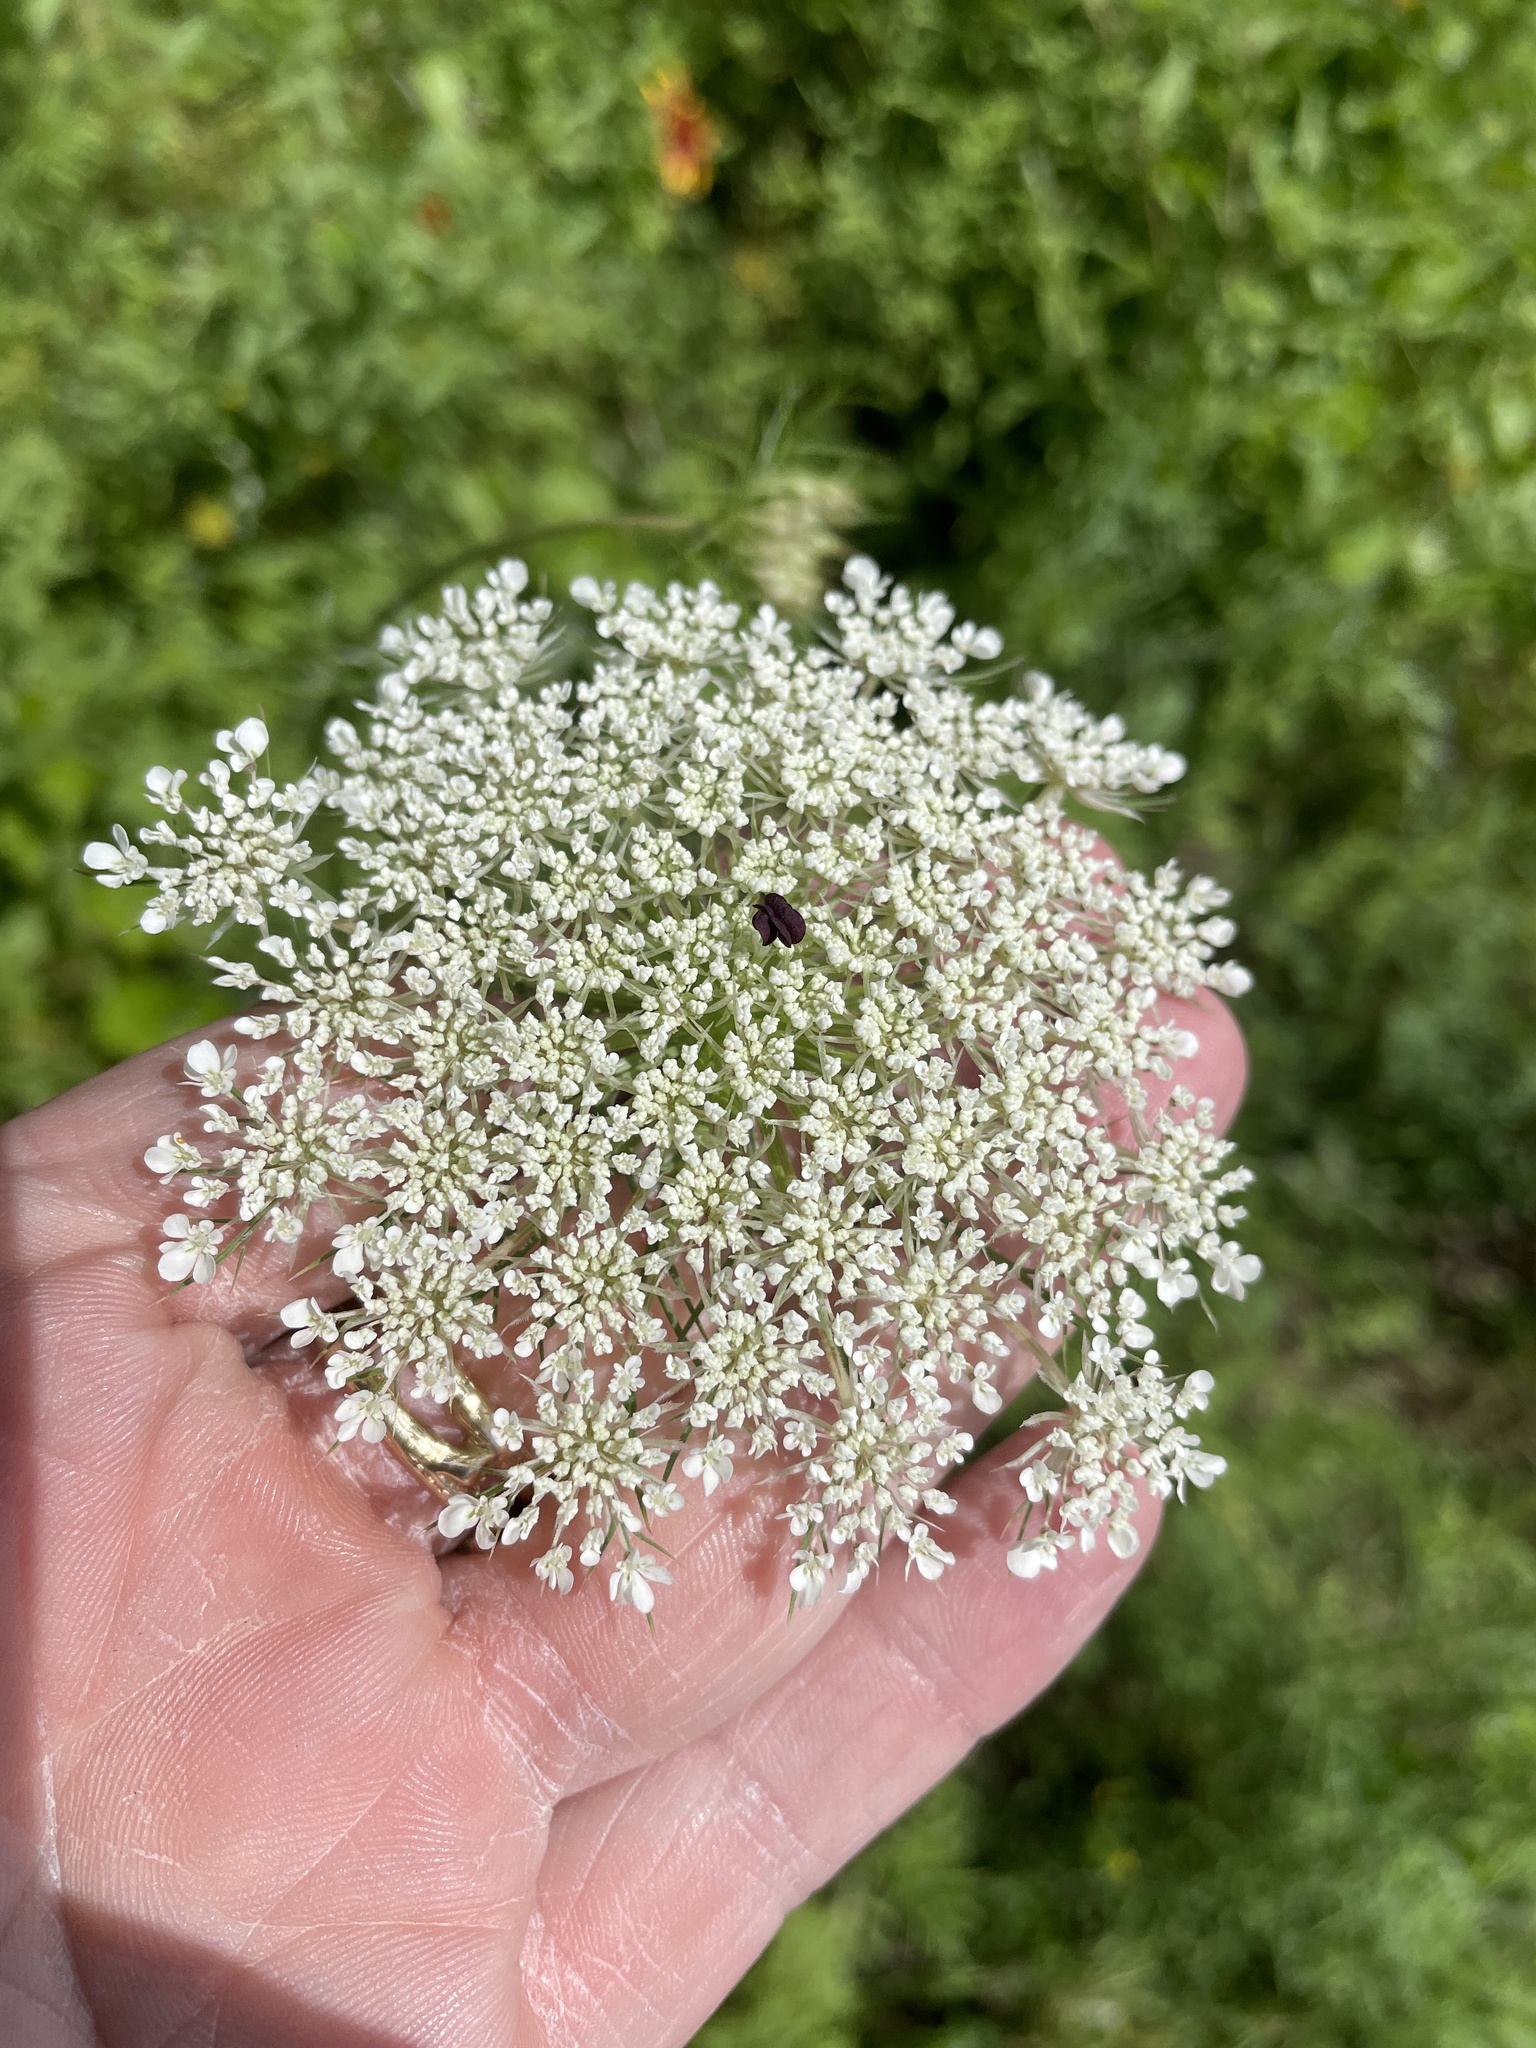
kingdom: Plantae
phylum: Tracheophyta
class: Magnoliopsida
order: Apiales
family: Apiaceae
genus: Daucus
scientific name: Daucus carota
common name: Wild carrot
